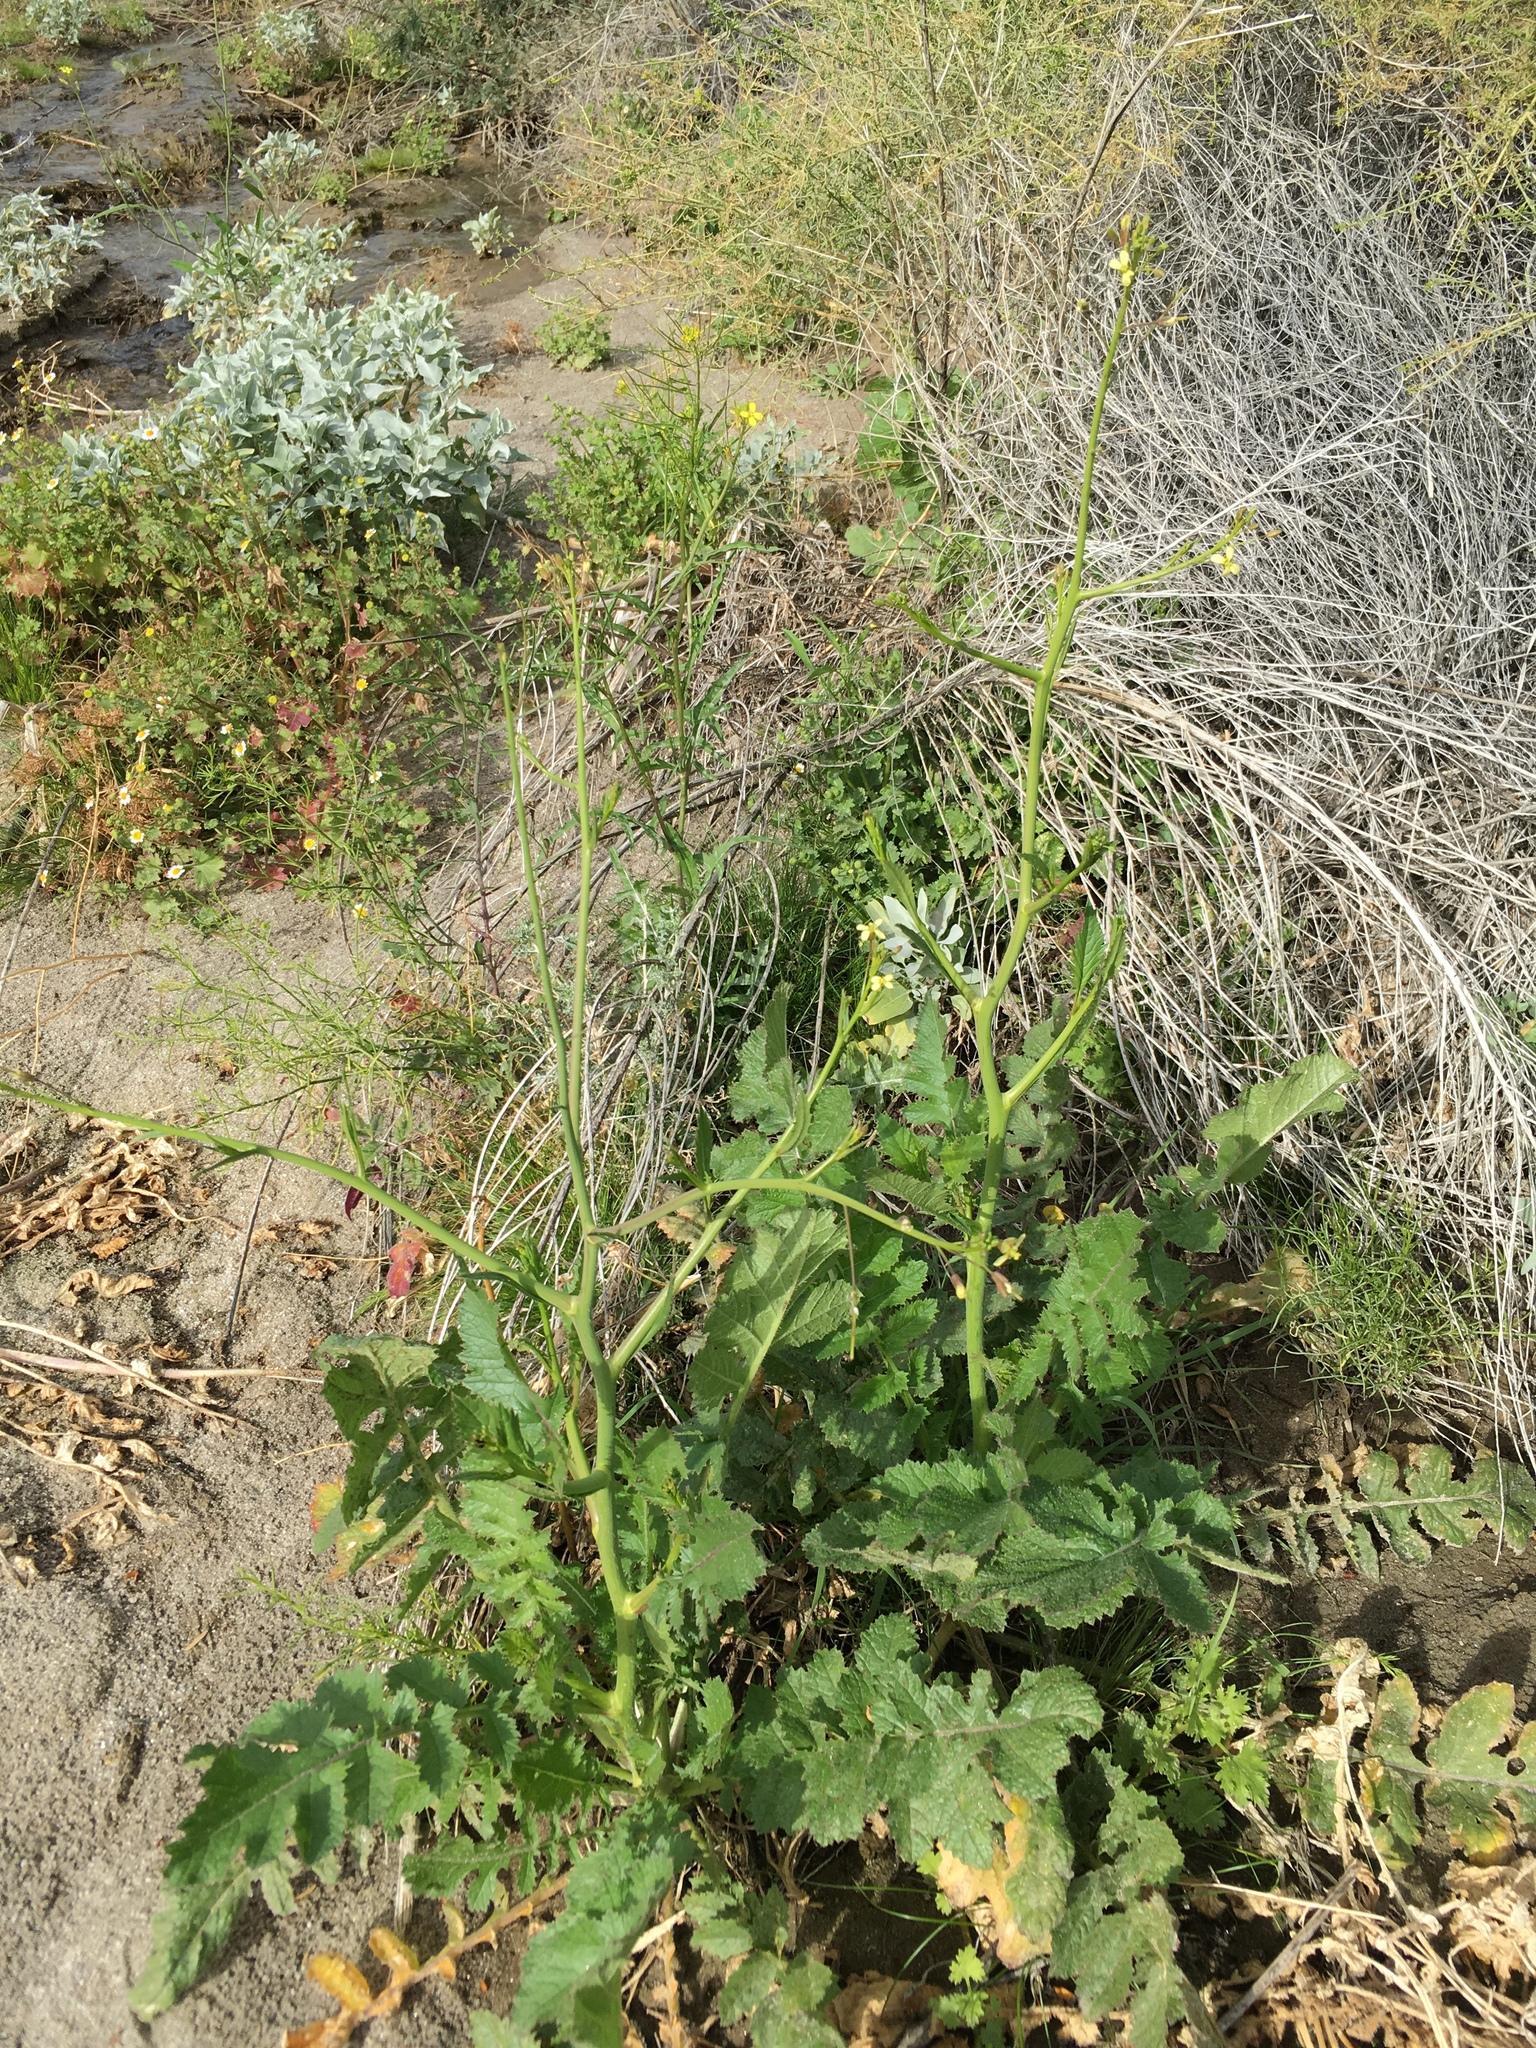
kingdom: Plantae
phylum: Tracheophyta
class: Magnoliopsida
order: Brassicales
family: Brassicaceae
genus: Brassica
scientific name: Brassica tournefortii
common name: Pale cabbage
